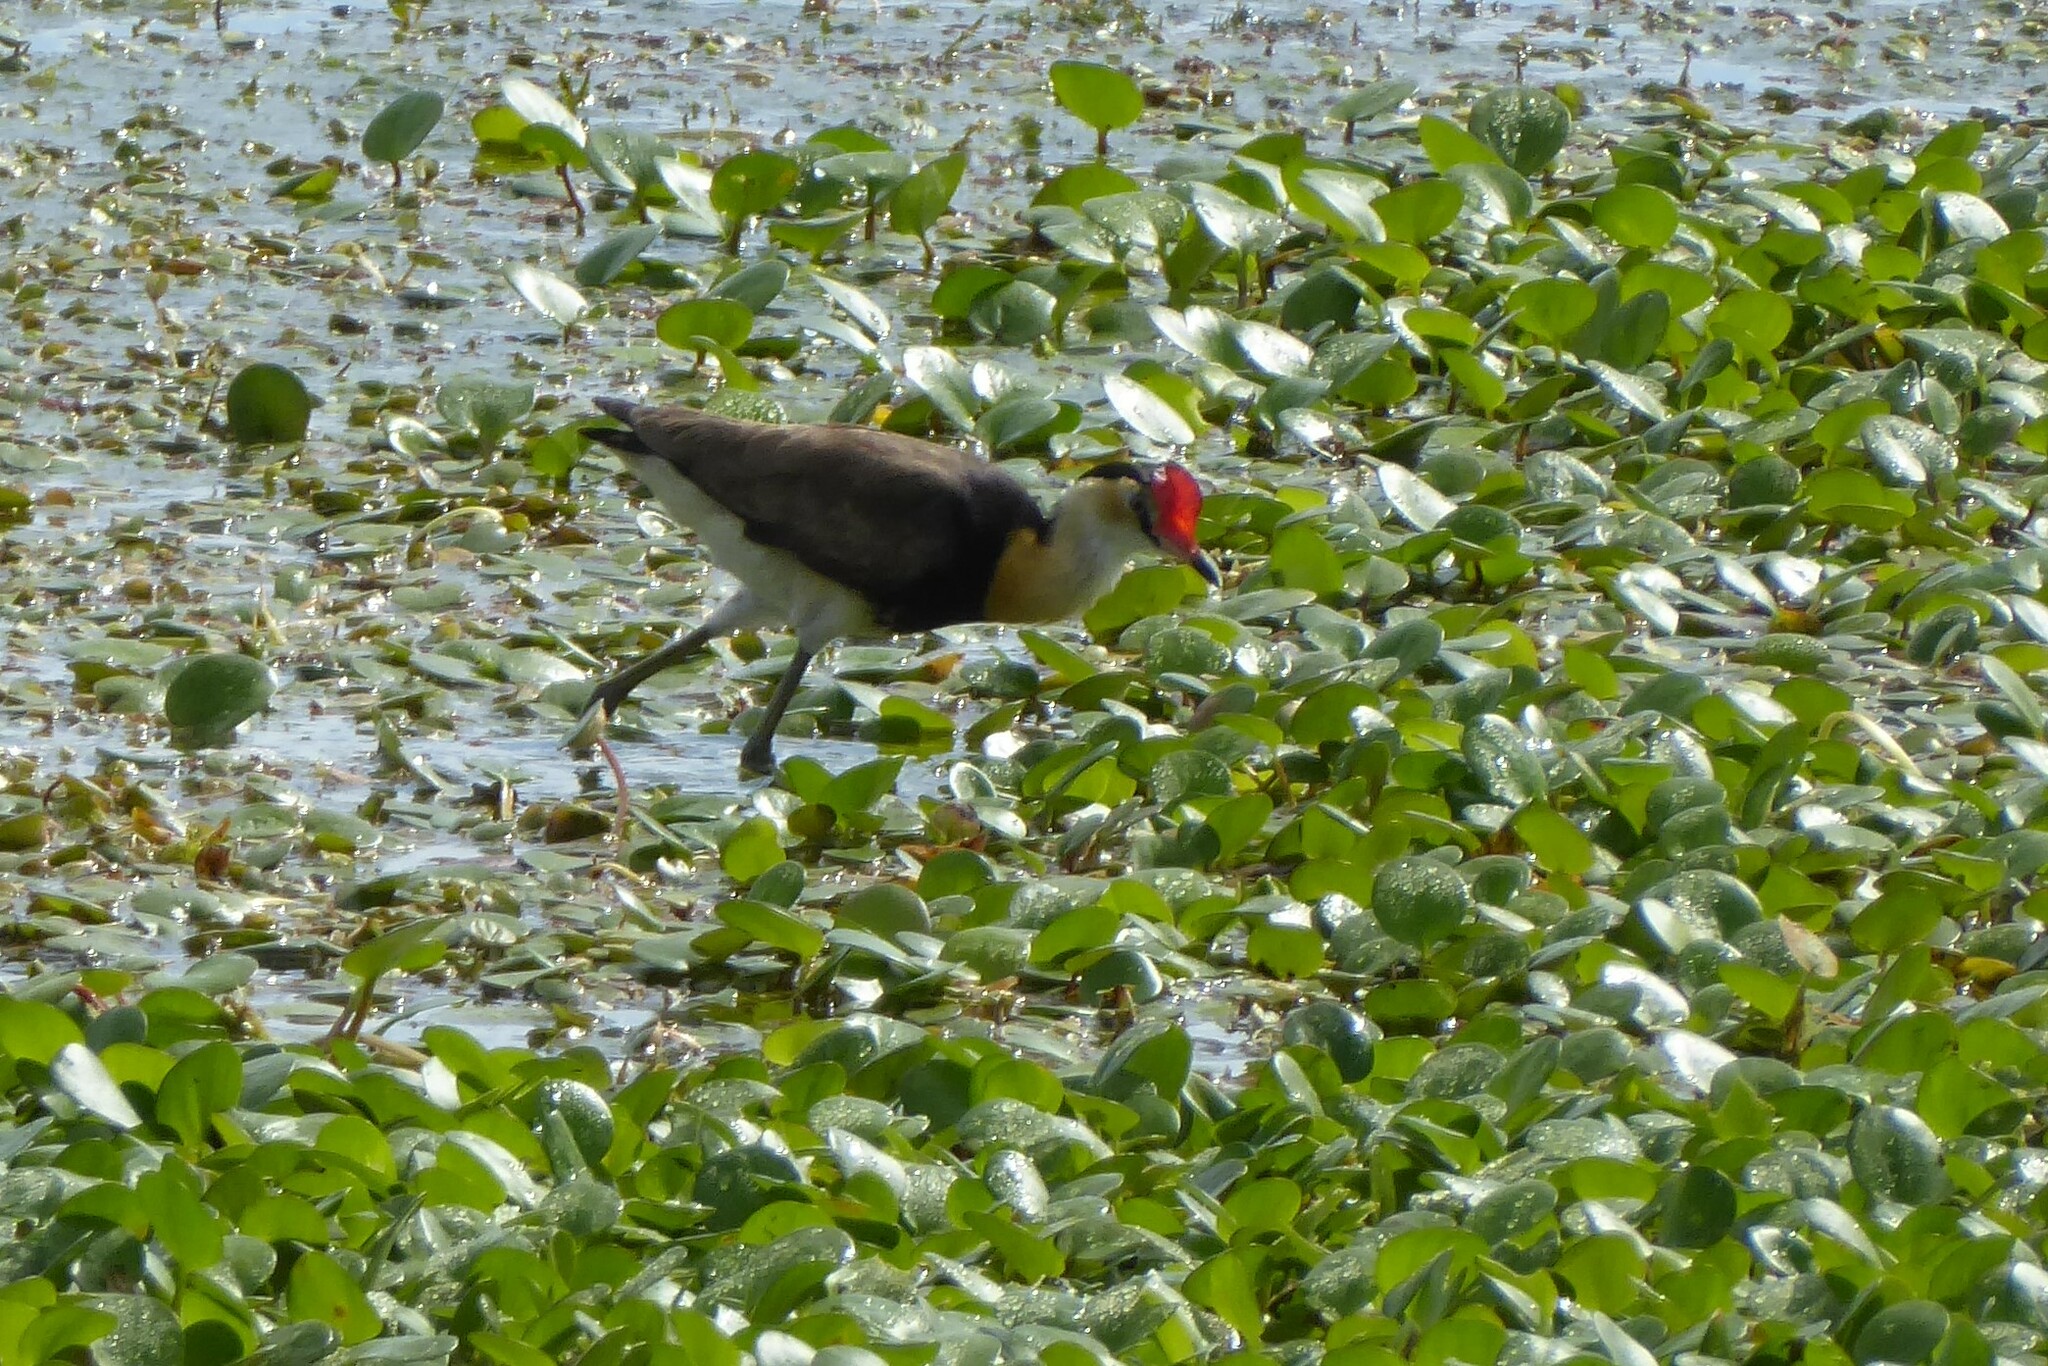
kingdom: Animalia
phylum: Chordata
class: Aves
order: Charadriiformes
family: Jacanidae
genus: Irediparra
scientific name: Irediparra gallinacea
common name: Comb-crested jacana
